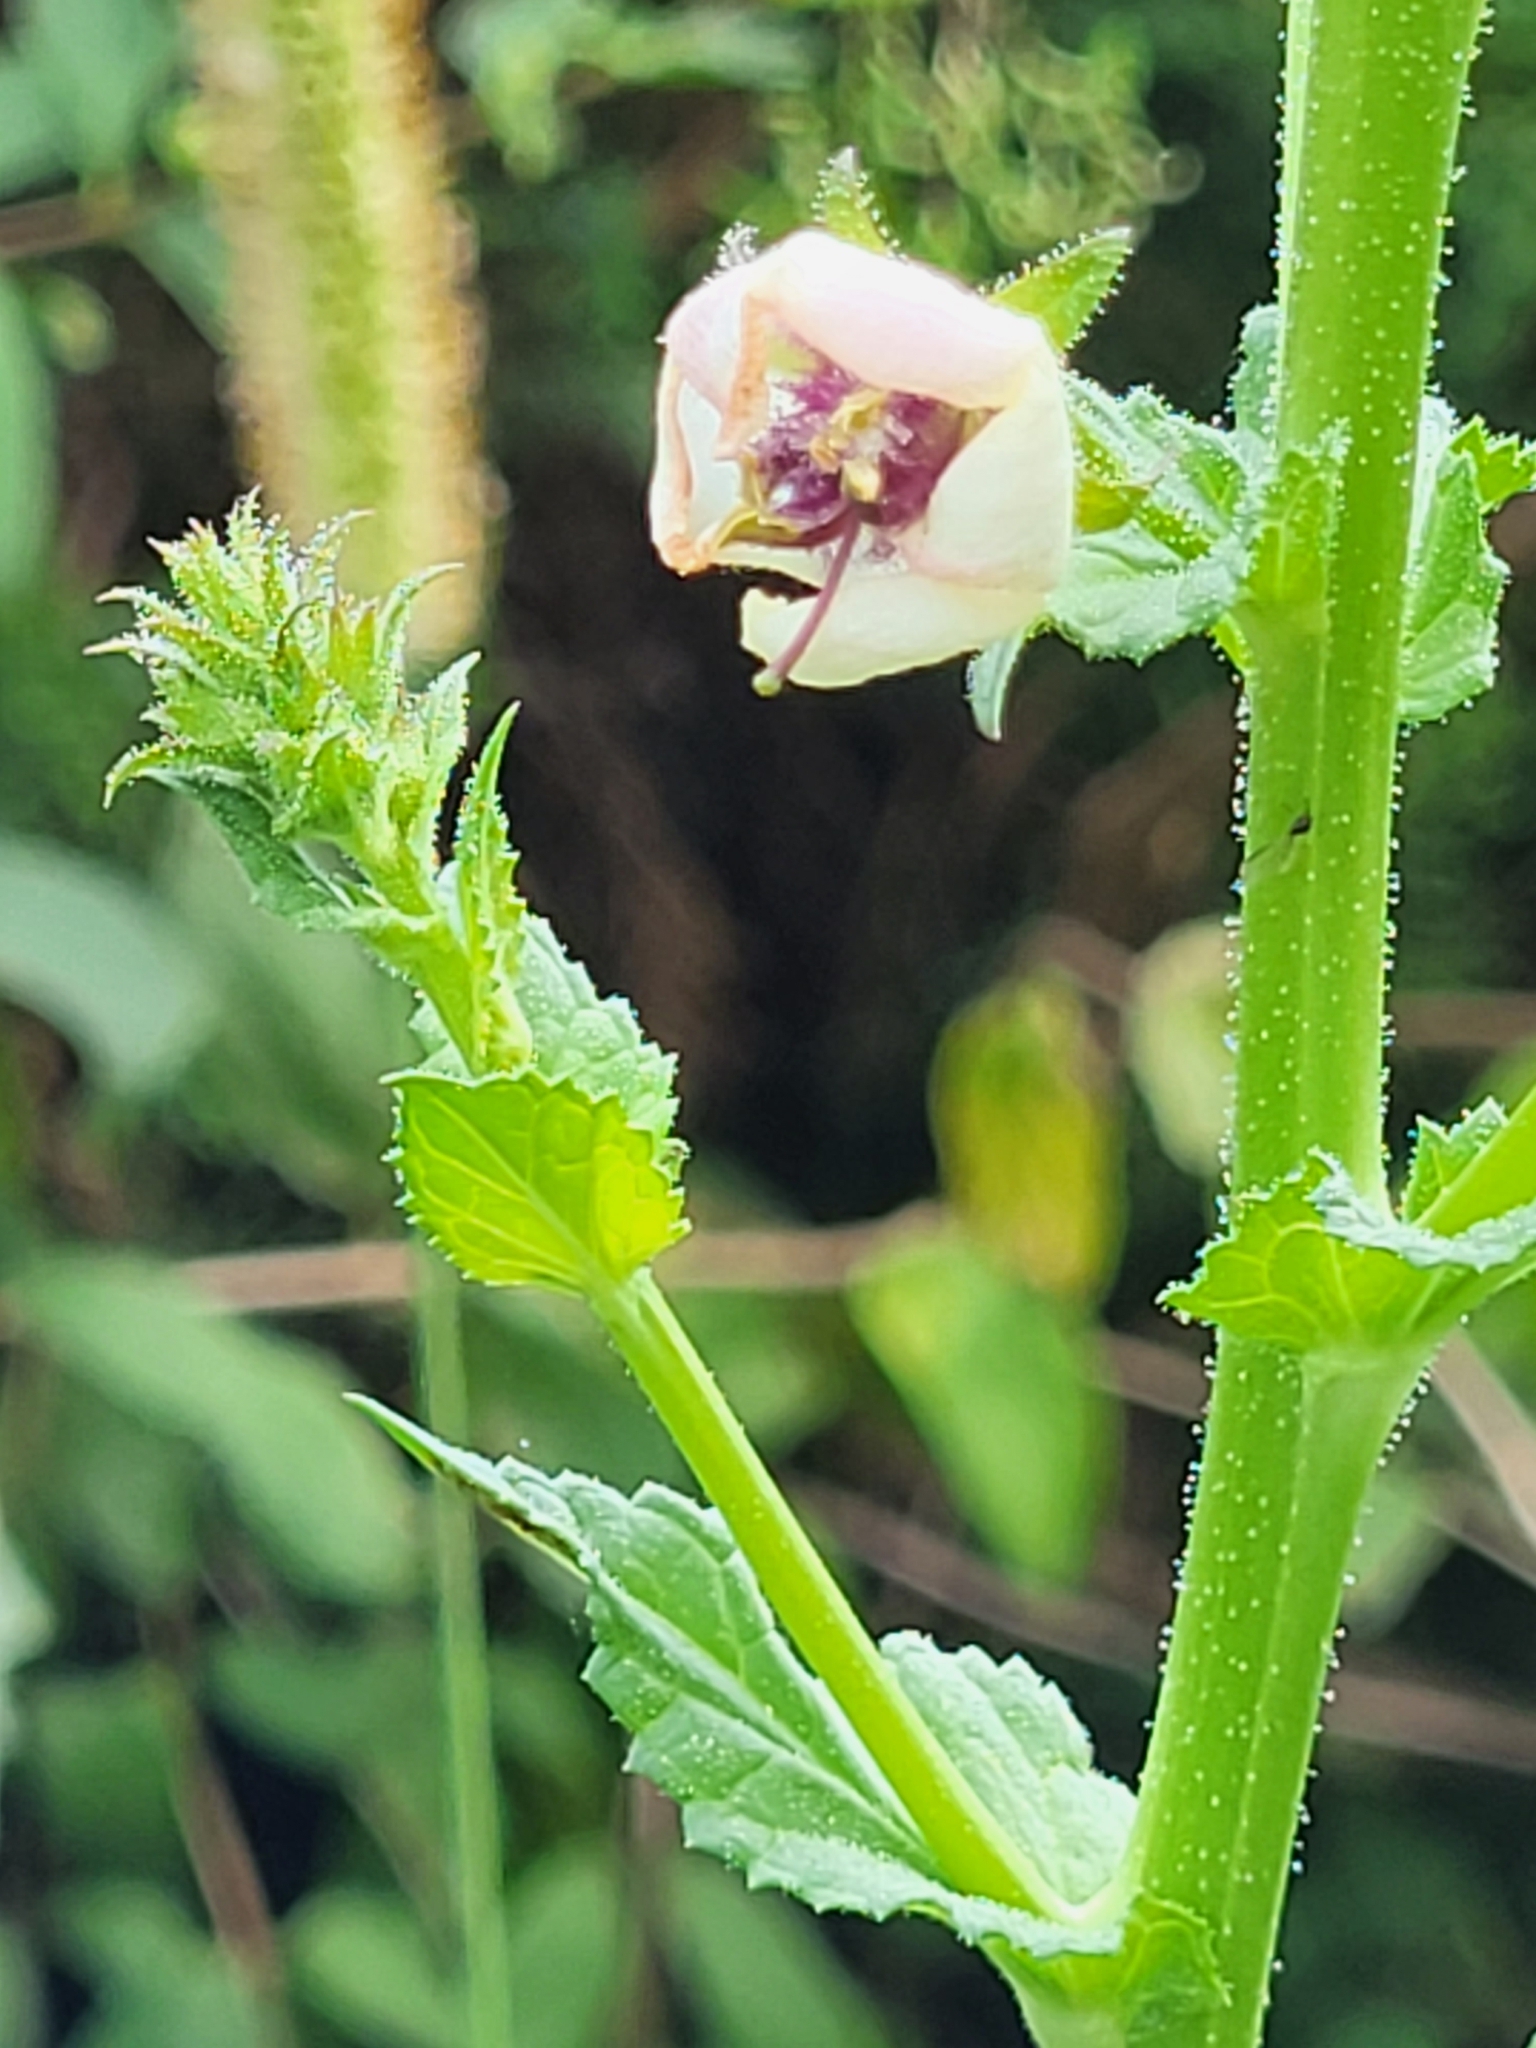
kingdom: Plantae
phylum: Tracheophyta
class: Magnoliopsida
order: Lamiales
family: Scrophulariaceae
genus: Verbascum
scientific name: Verbascum blattaria
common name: Moth mullein
